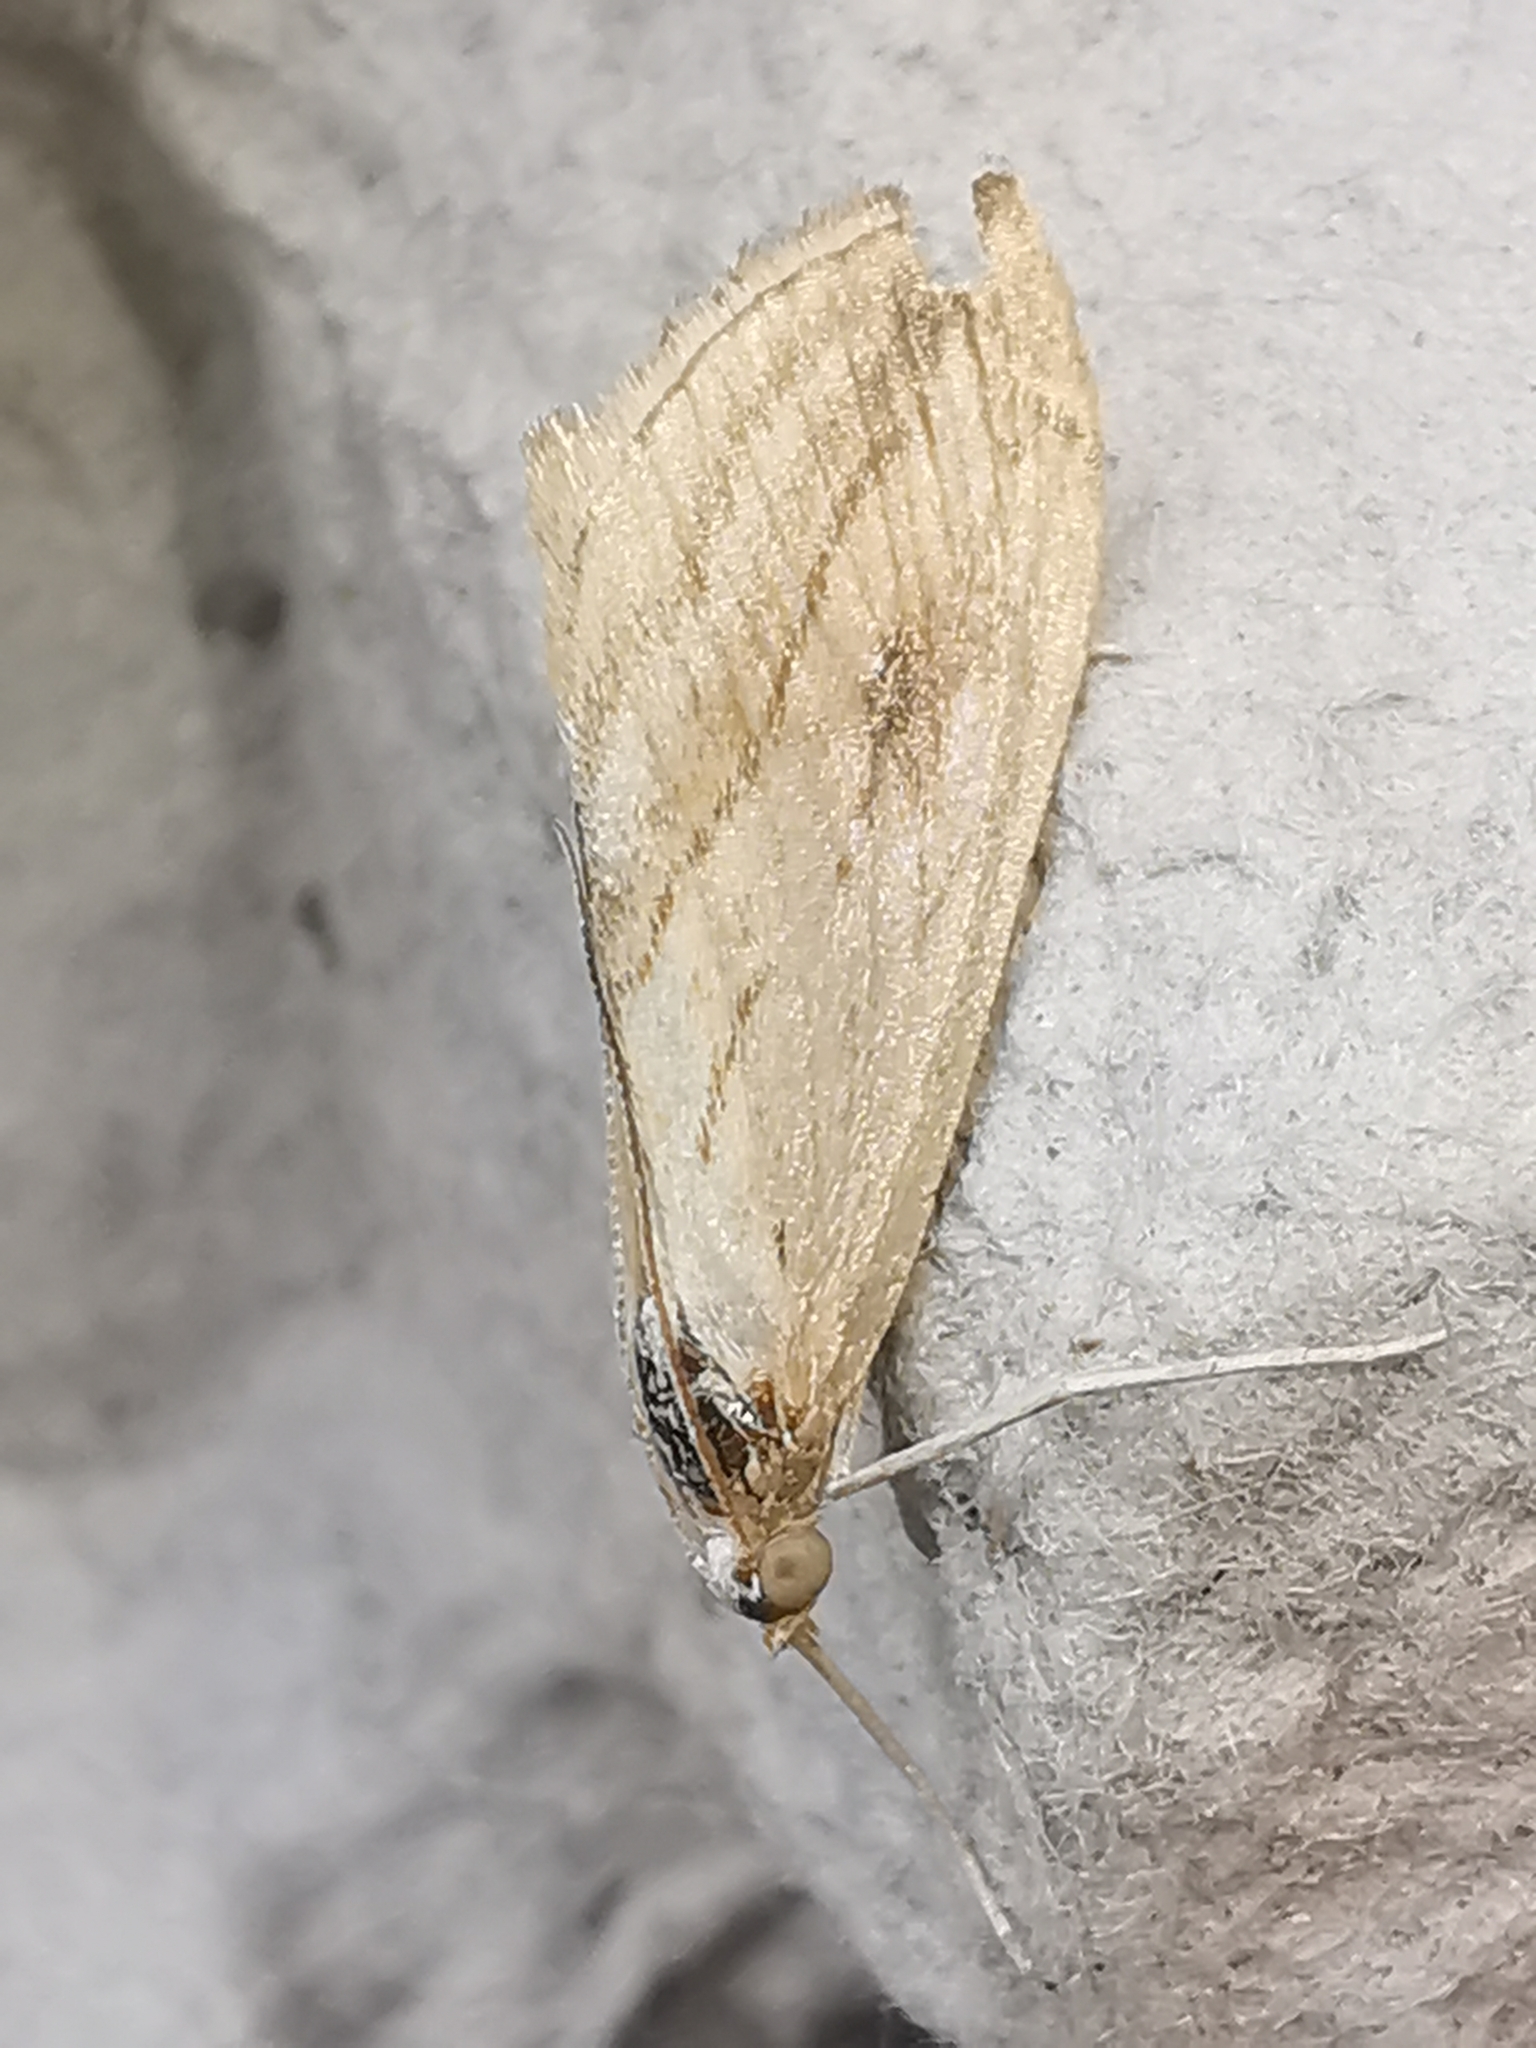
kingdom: Animalia
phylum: Arthropoda
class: Insecta
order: Lepidoptera
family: Crambidae
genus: Evergestis
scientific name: Evergestis forficalis
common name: Garden pebble
